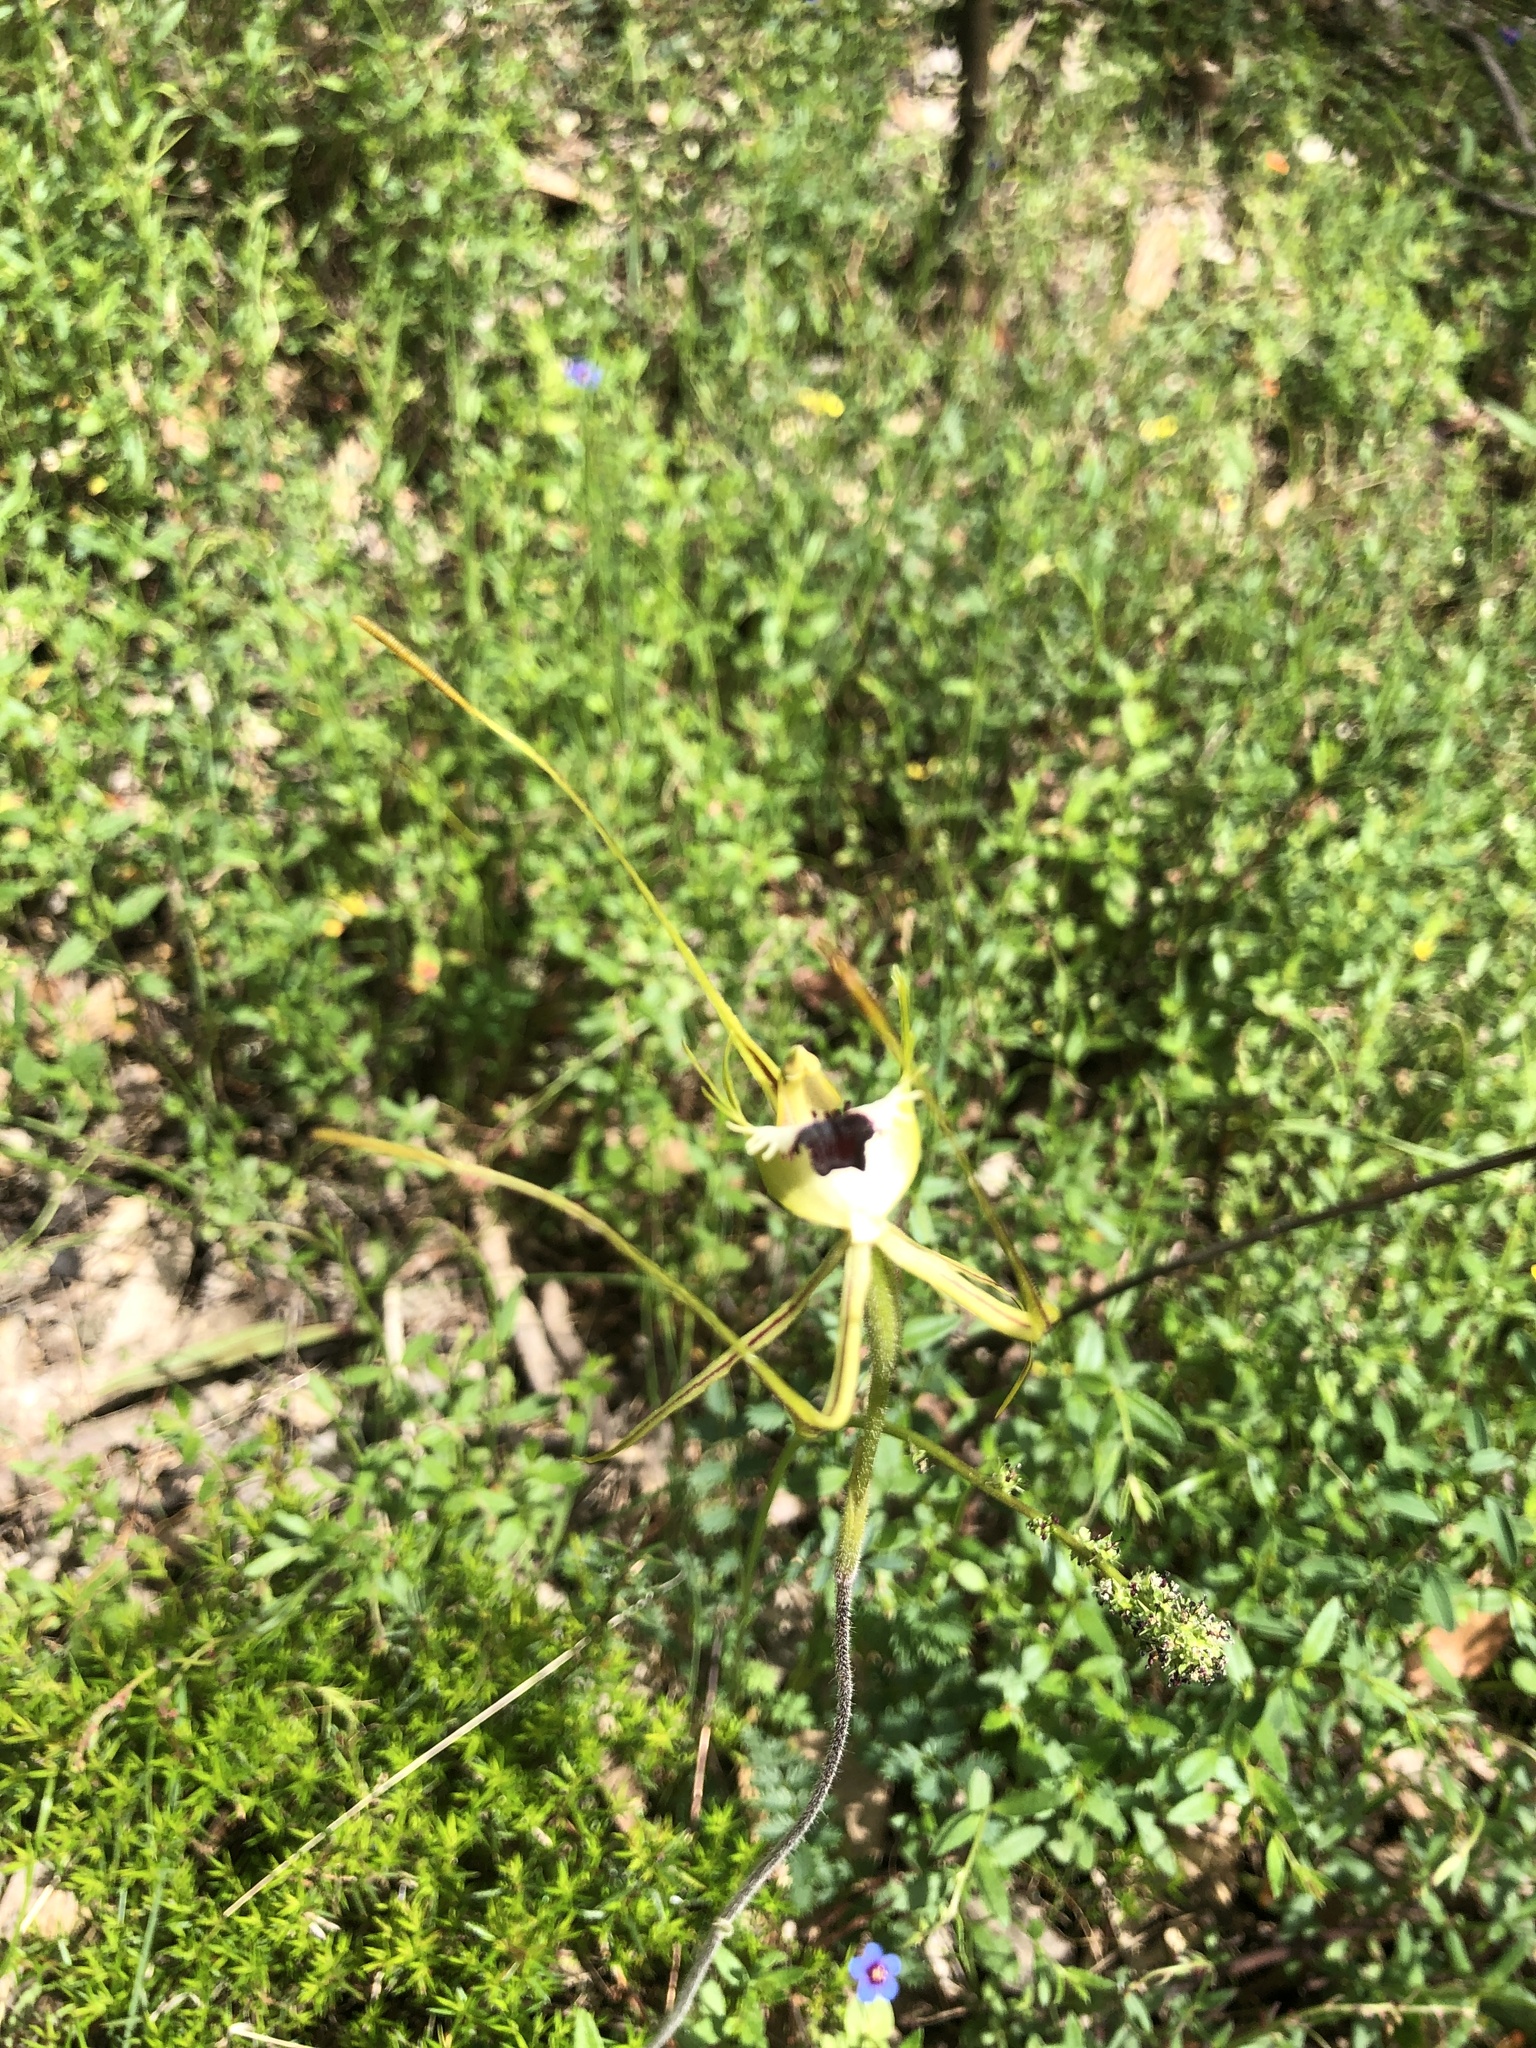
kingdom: Plantae
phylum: Tracheophyta
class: Liliopsida
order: Asparagales
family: Orchidaceae
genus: Caladenia
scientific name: Caladenia tentaculata
